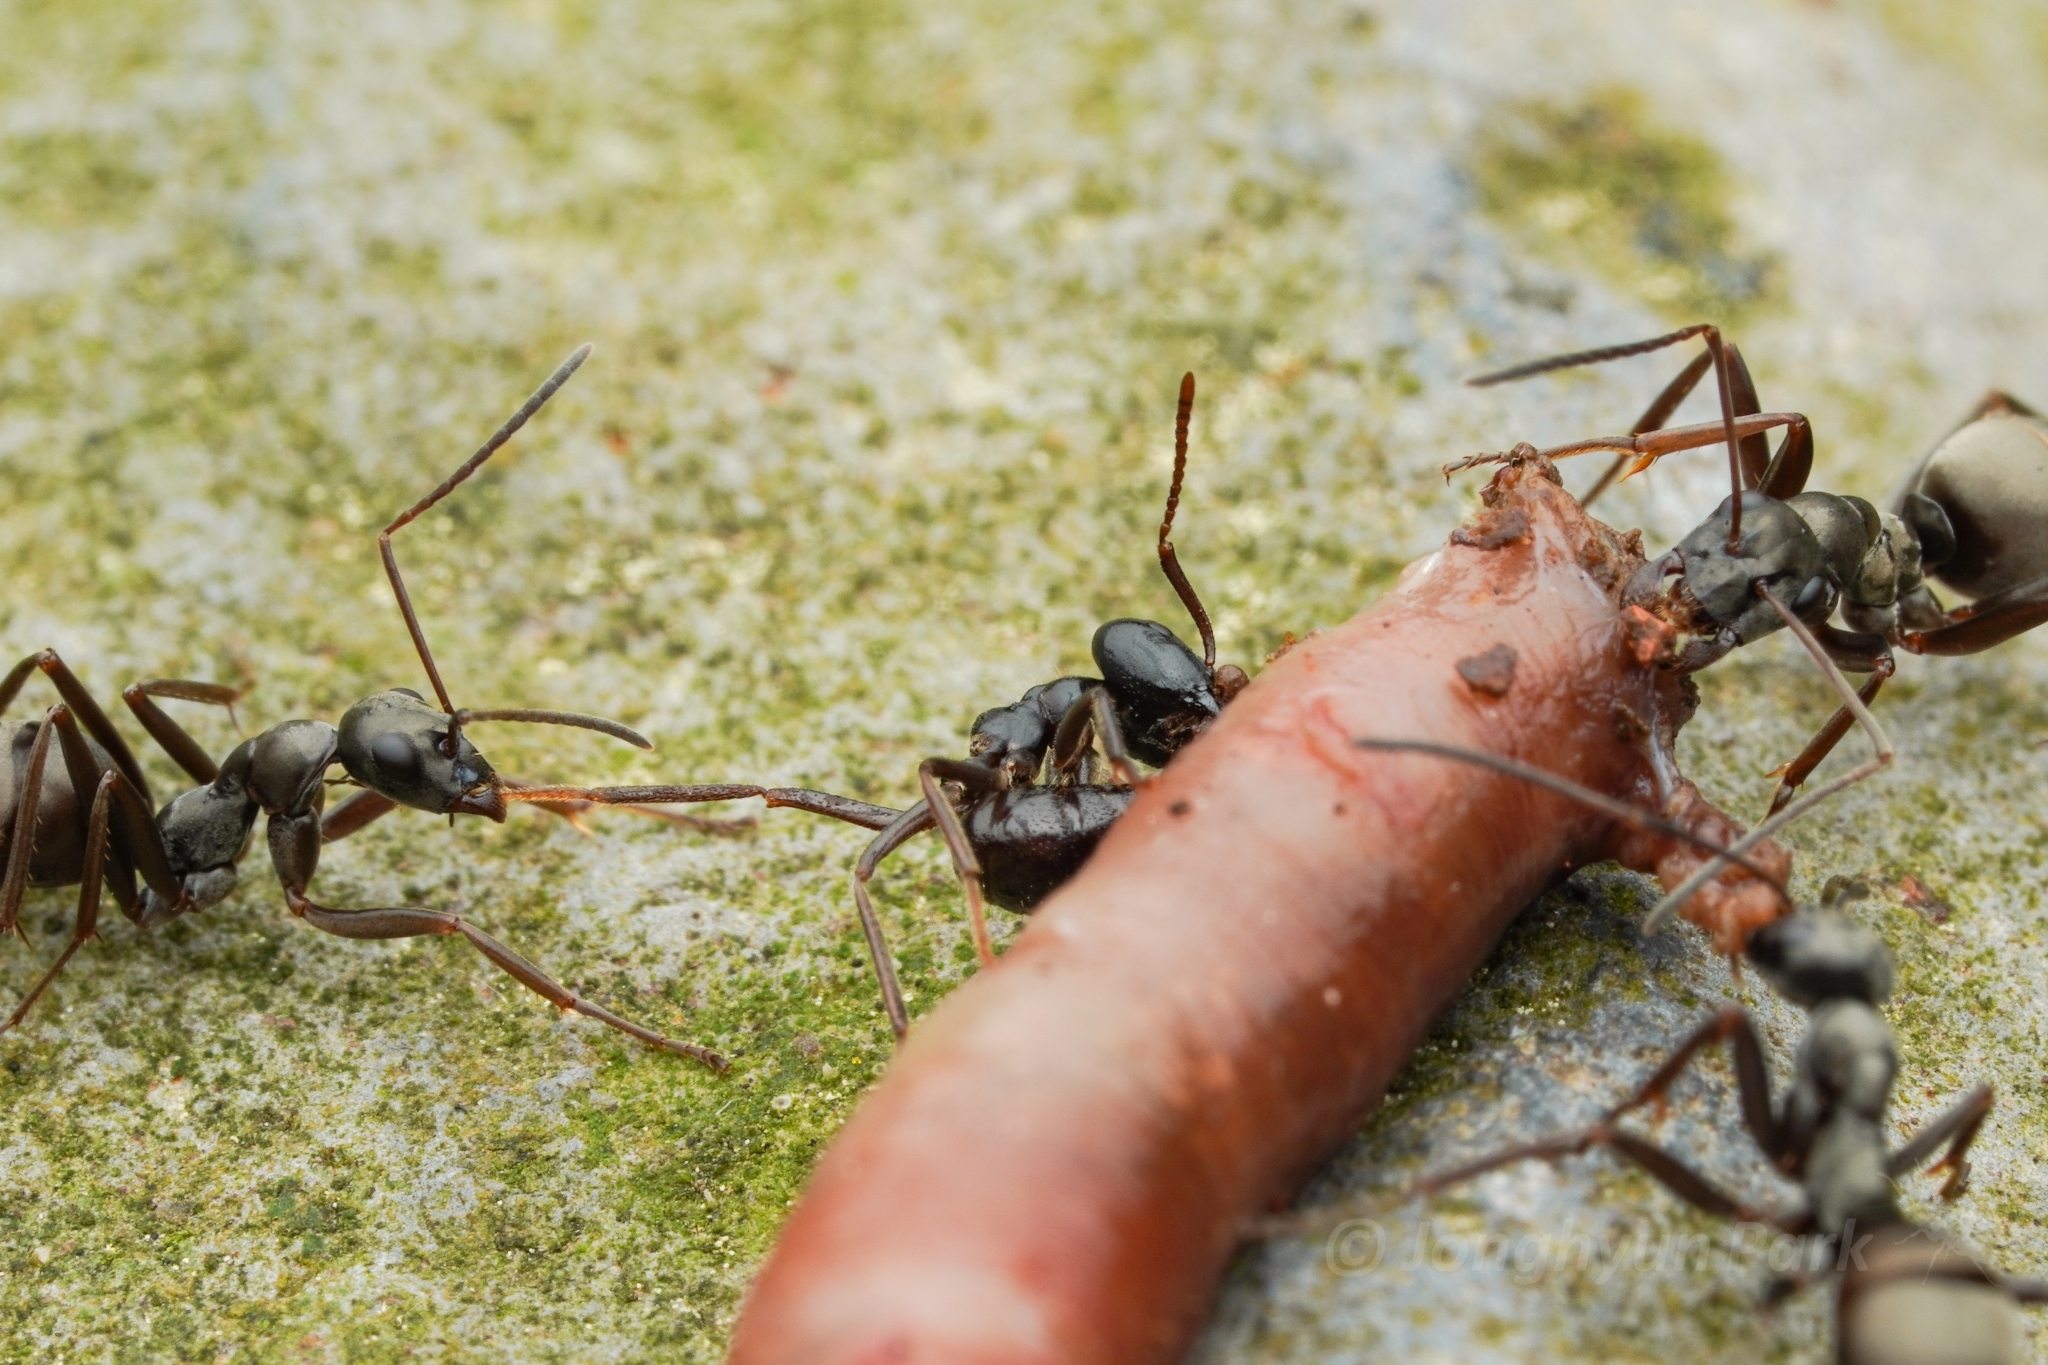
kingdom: Animalia
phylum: Arthropoda
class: Insecta
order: Hymenoptera
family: Formicidae
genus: Lasius
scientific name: Lasius spathepus
